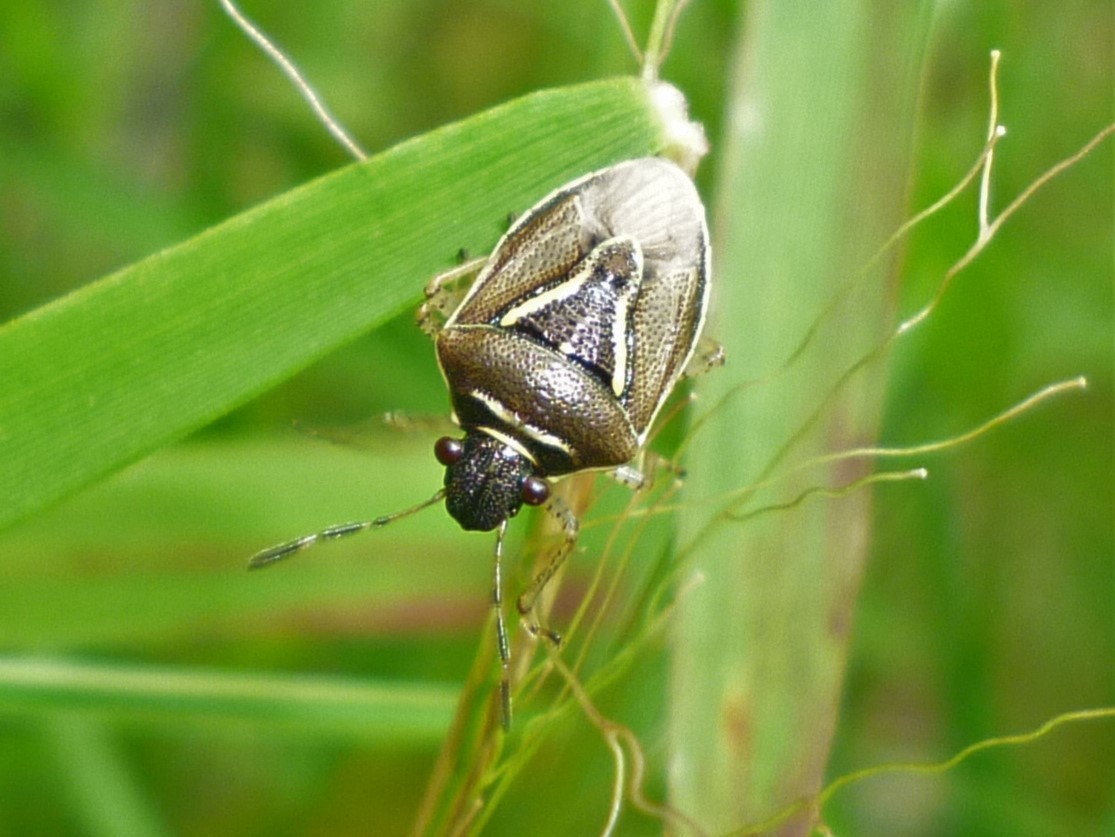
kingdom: Animalia
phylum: Arthropoda
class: Insecta
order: Hemiptera
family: Pentatomidae
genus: Mormidea
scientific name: Mormidea lugens
